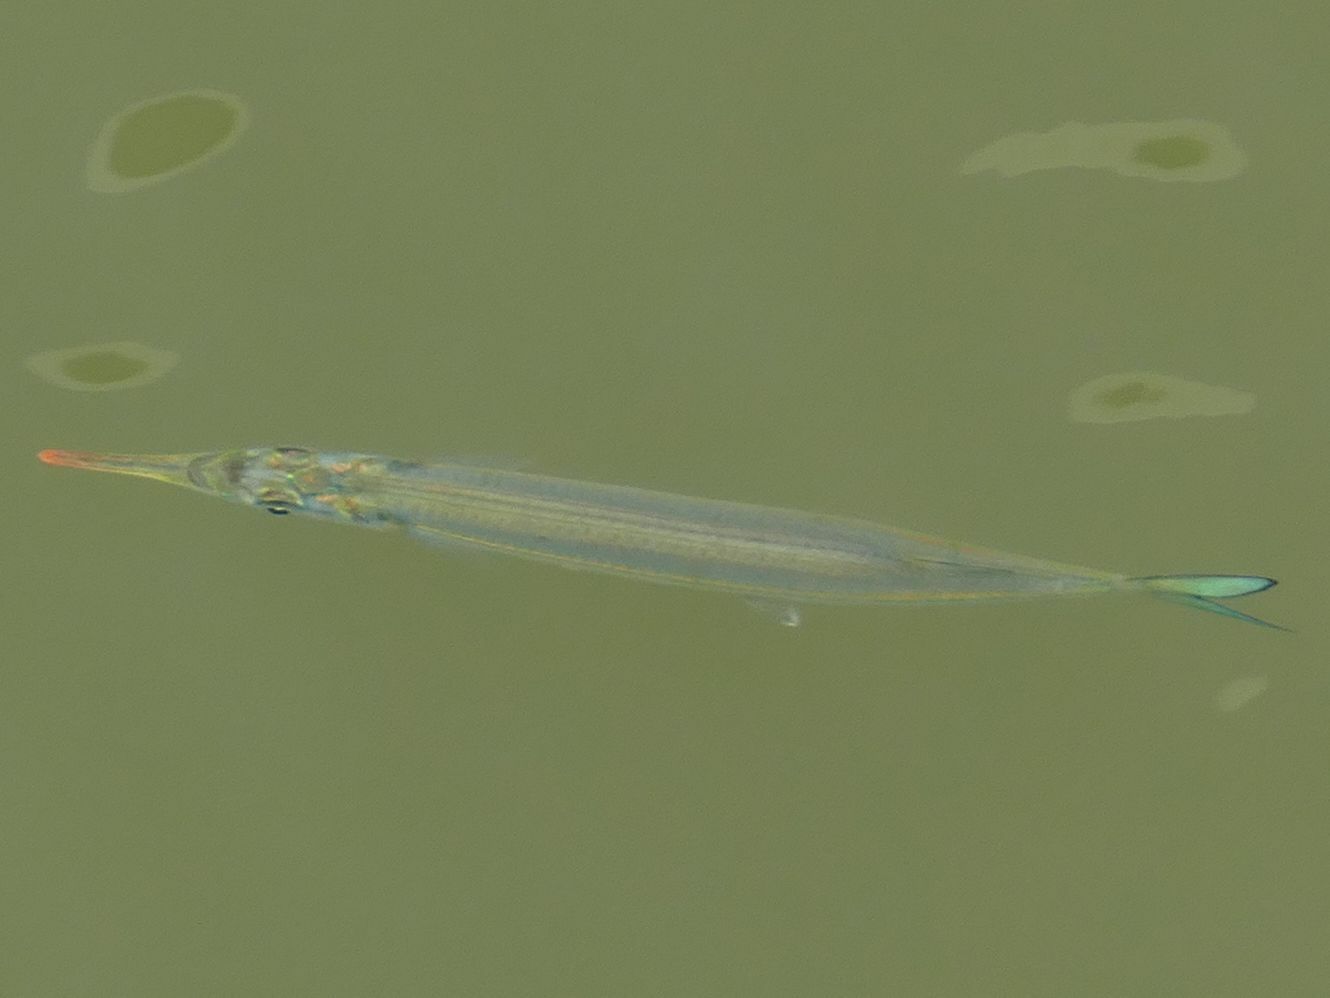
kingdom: Animalia
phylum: Chordata
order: Beloniformes
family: Hemiramphidae
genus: Hyporhamphus
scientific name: Hyporhamphus quoyi
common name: Quoy's garfish
